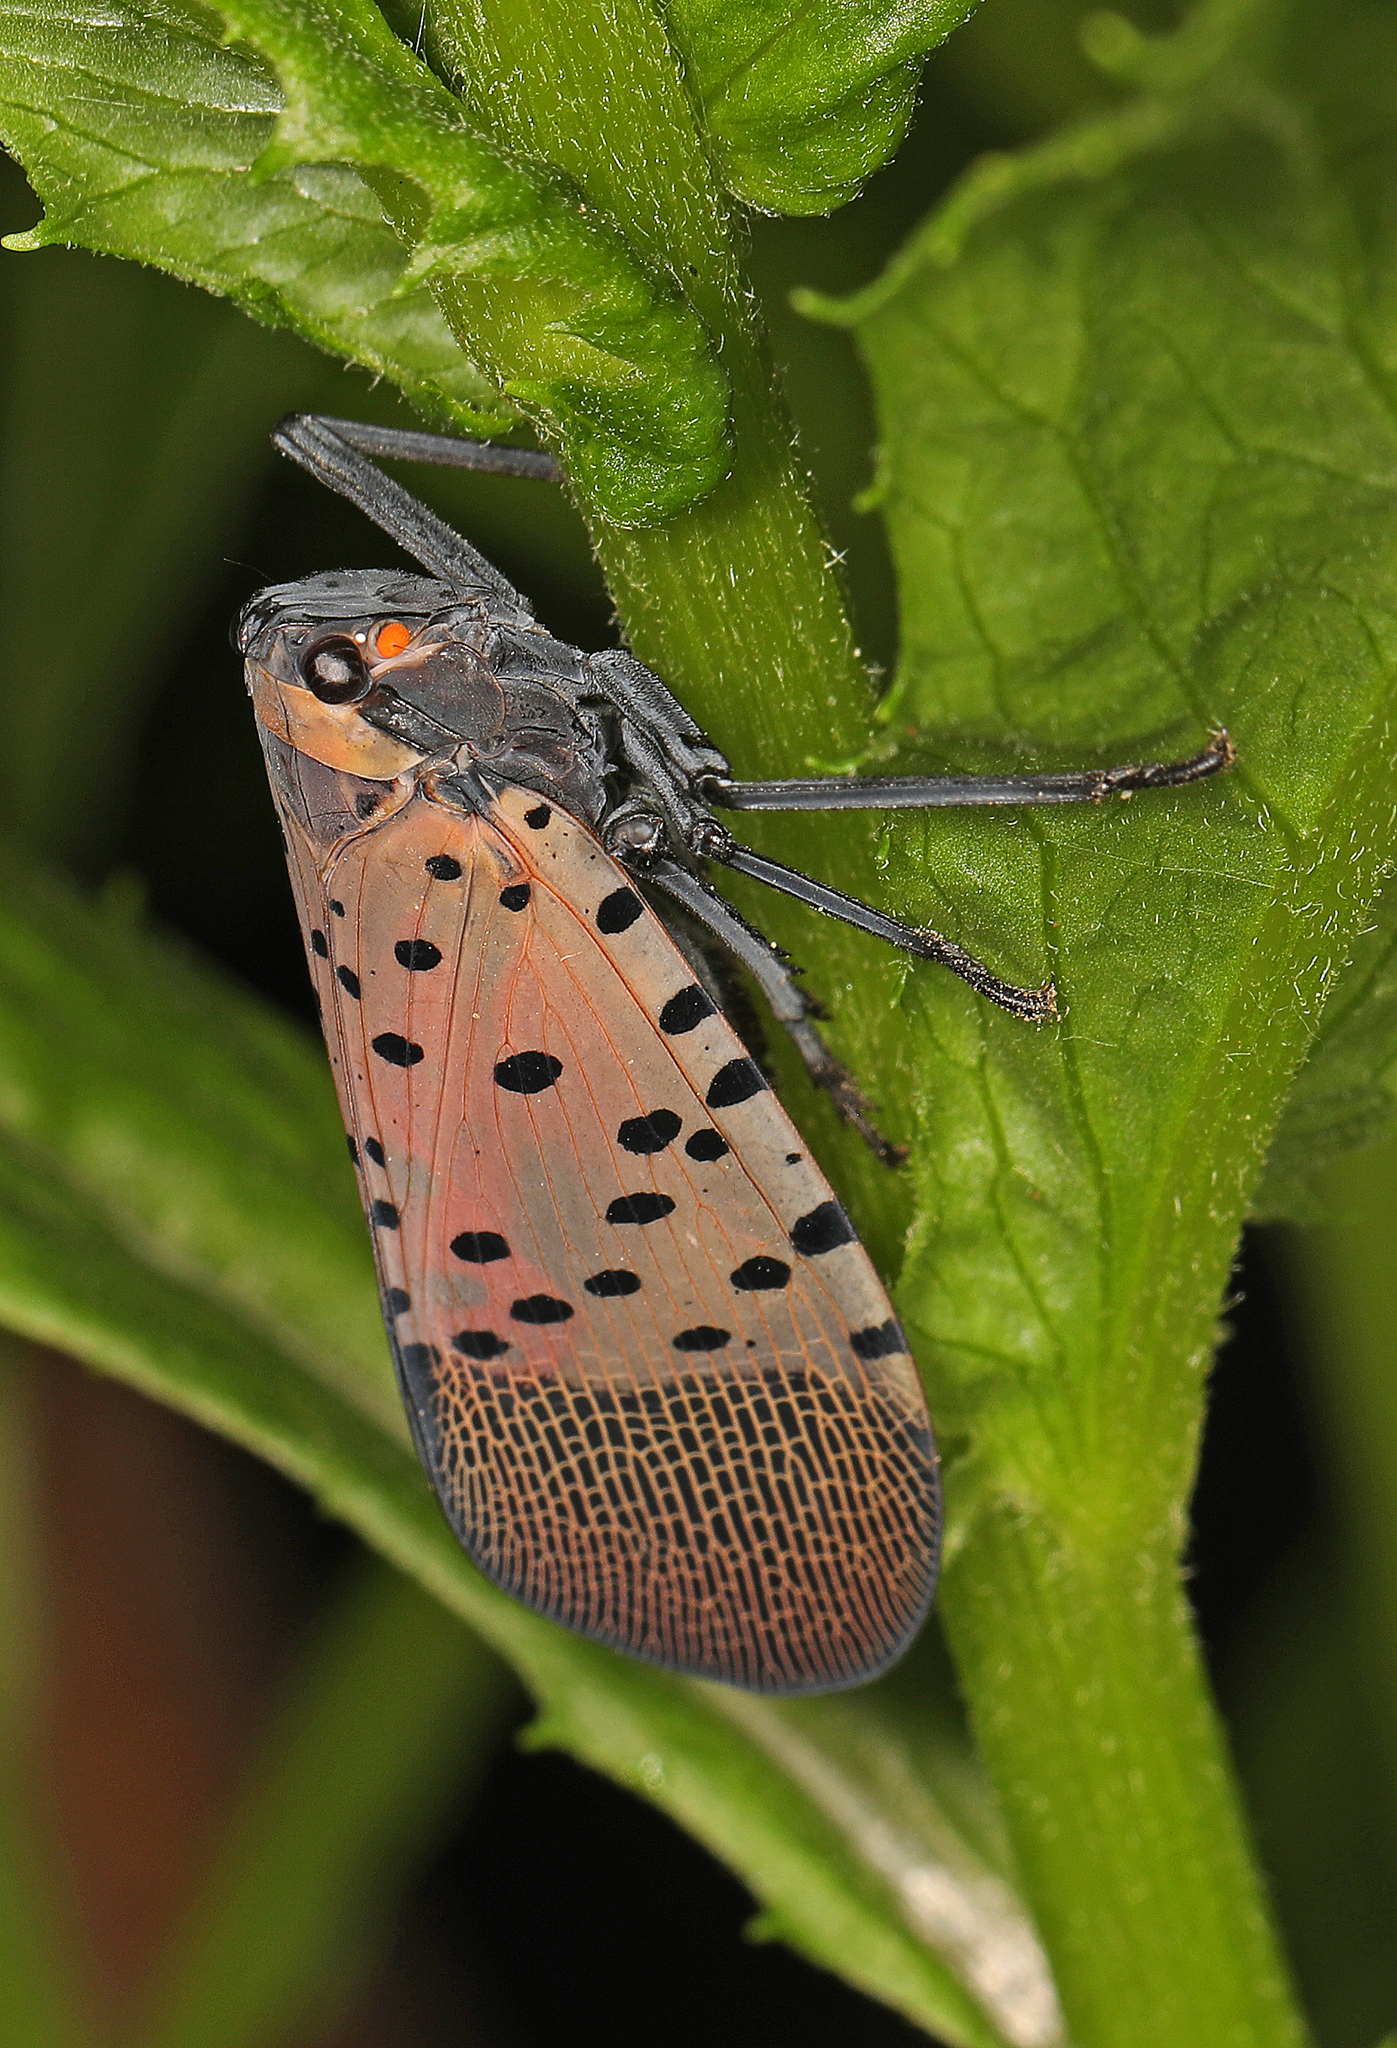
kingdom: Animalia
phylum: Arthropoda
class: Insecta
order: Hemiptera
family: Fulgoridae
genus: Lycorma
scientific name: Lycorma delicatula
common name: Spotted lanternfly
